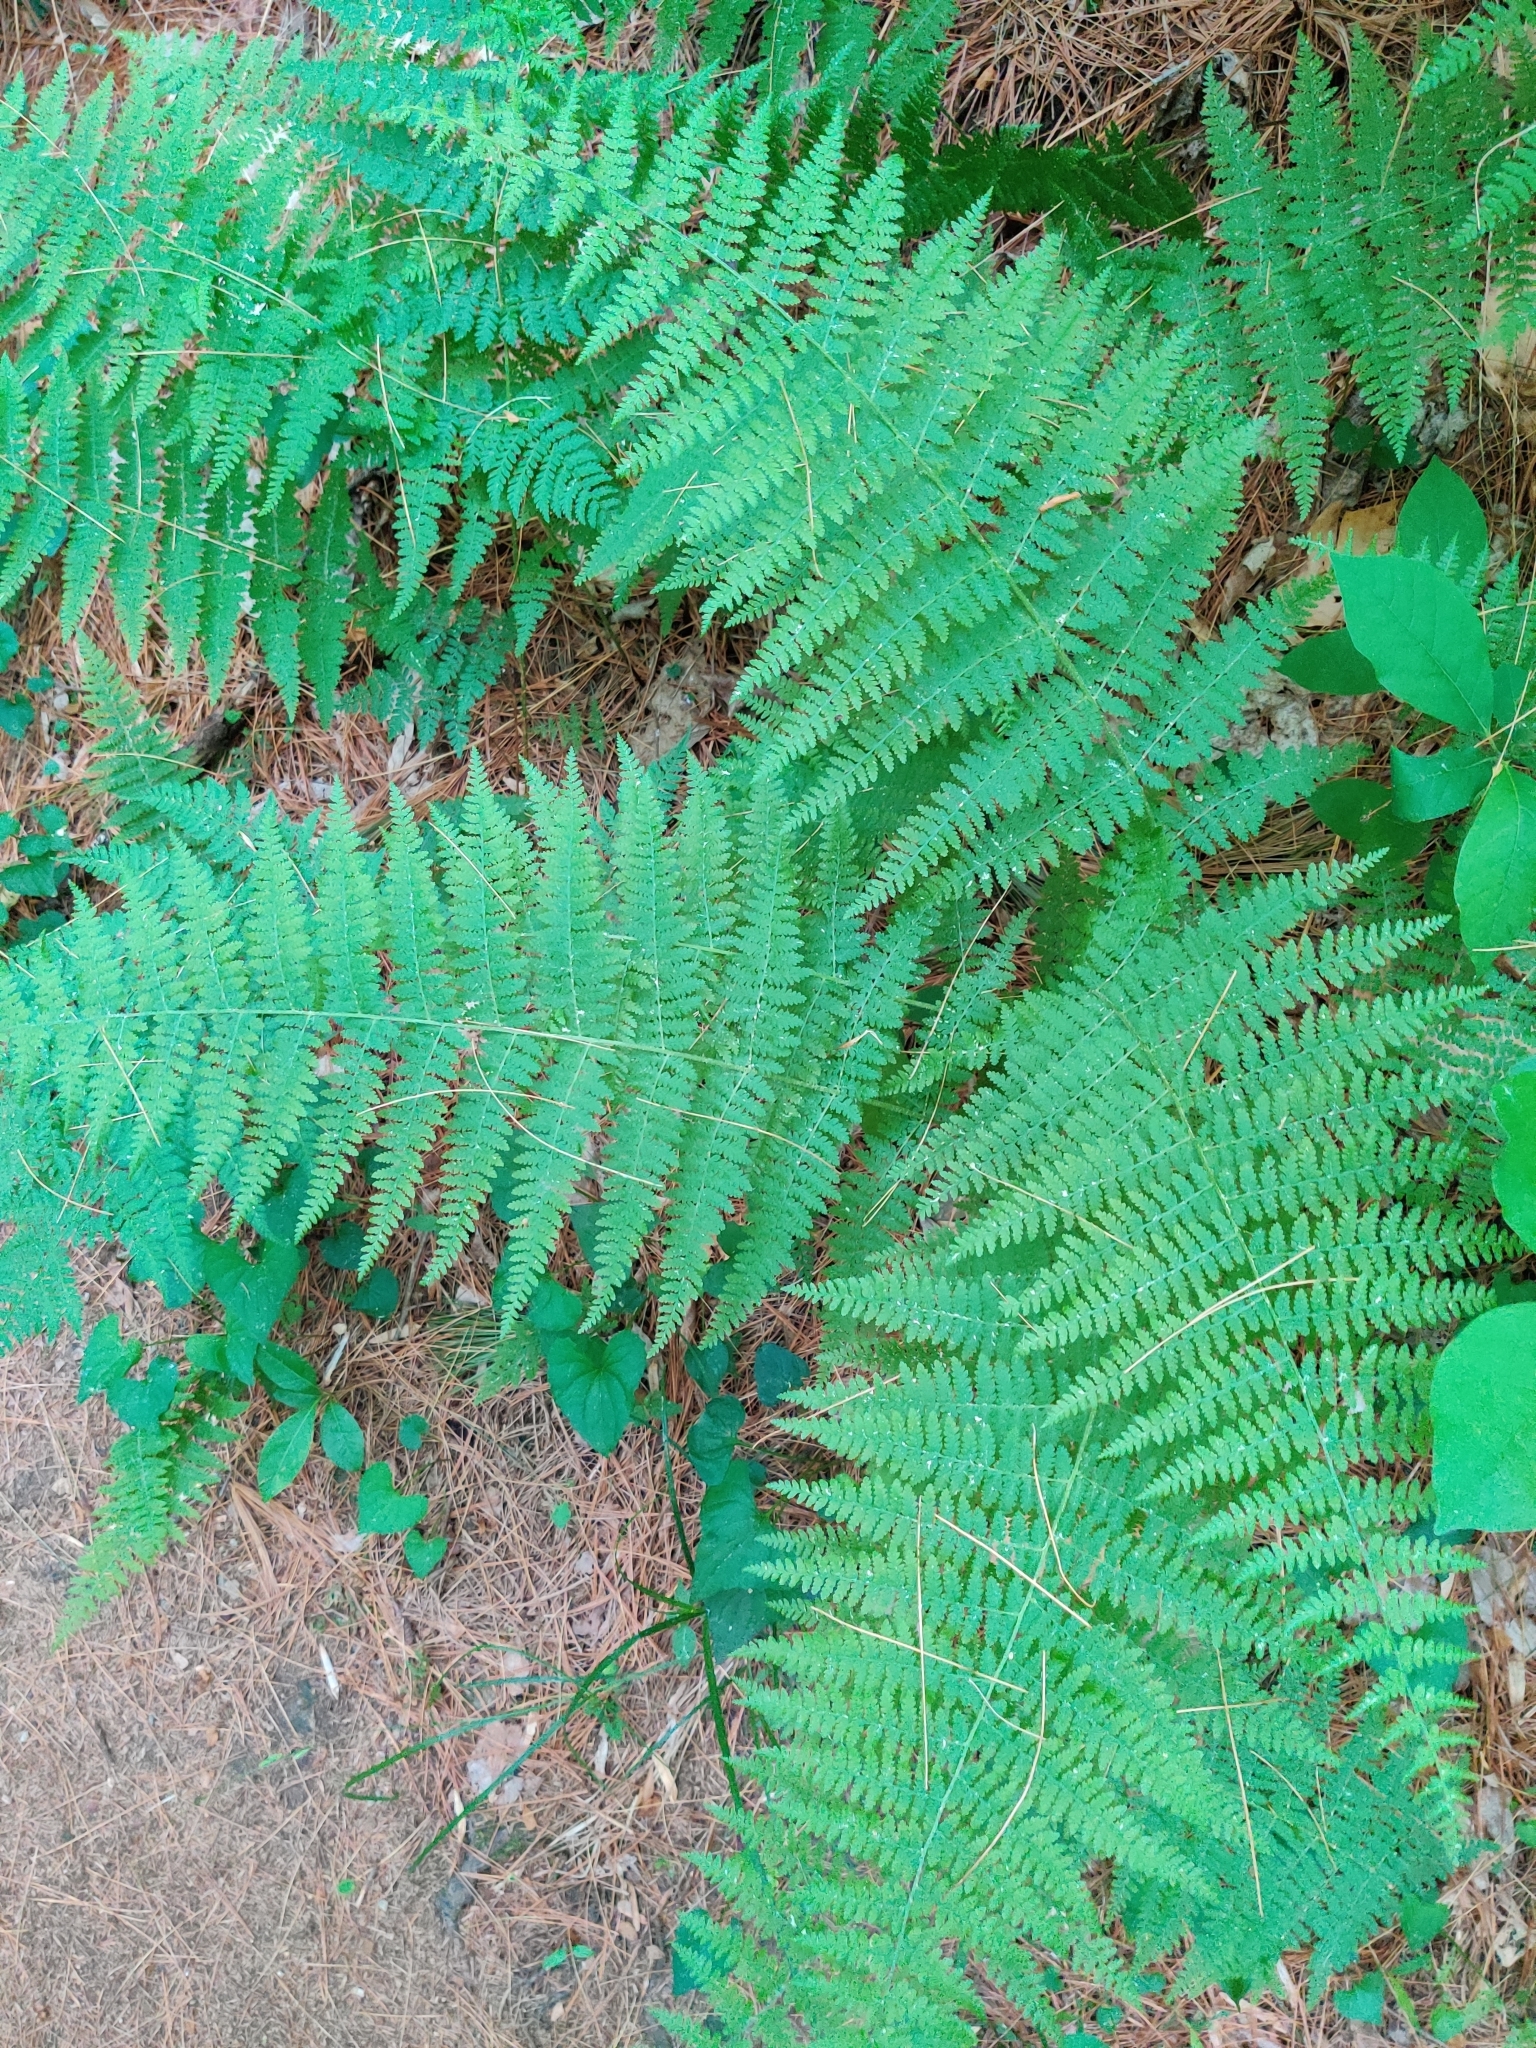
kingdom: Plantae
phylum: Tracheophyta
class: Polypodiopsida
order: Polypodiales
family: Dennstaedtiaceae
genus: Sitobolium
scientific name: Sitobolium punctilobum
